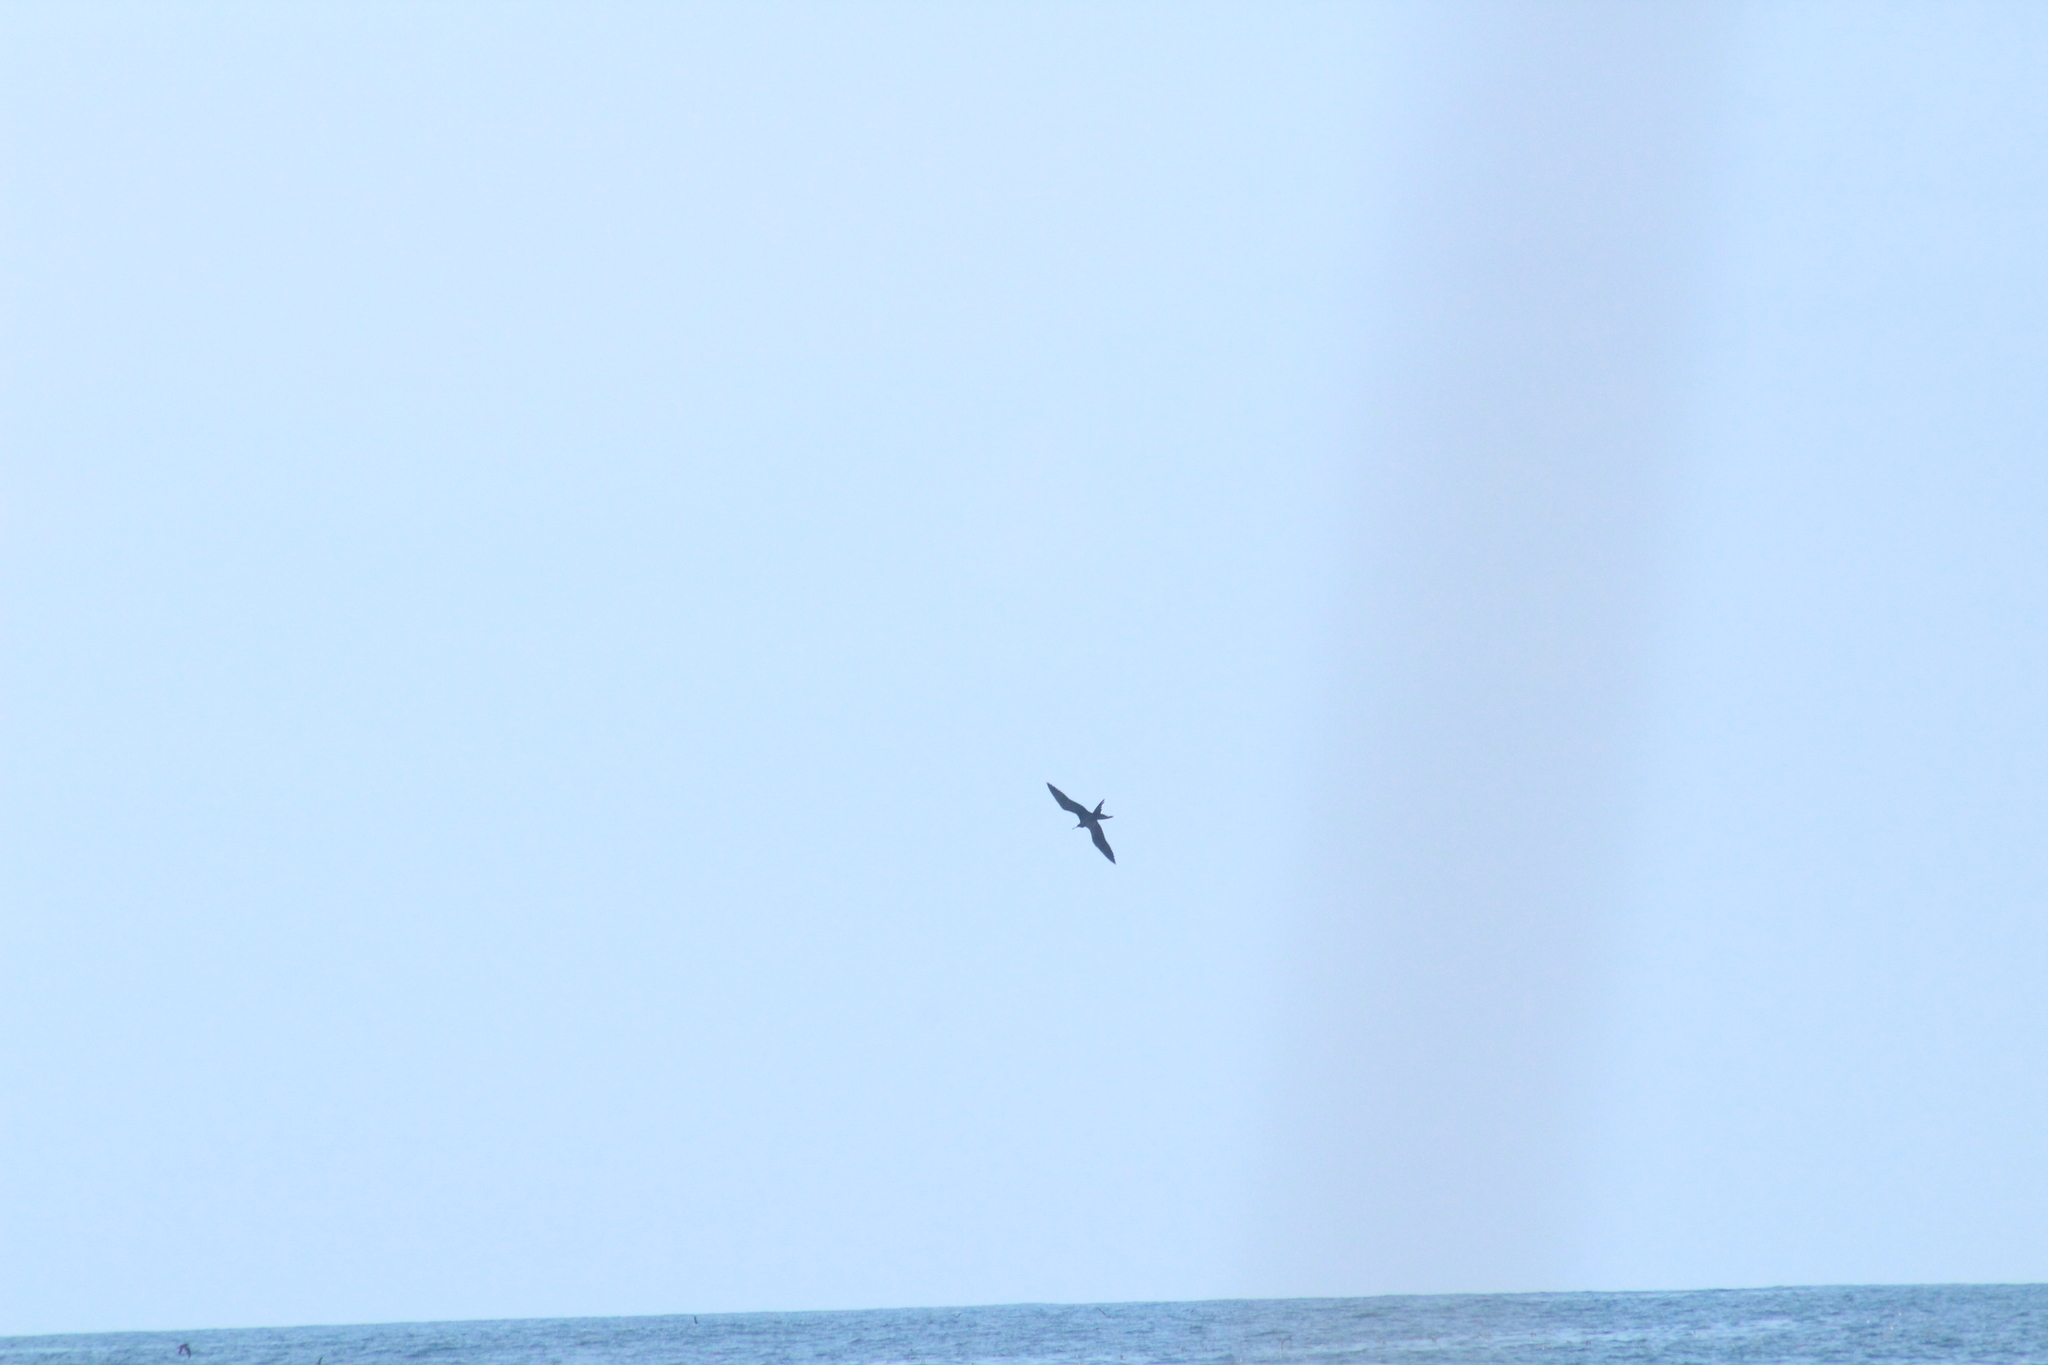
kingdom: Animalia
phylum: Chordata
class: Aves
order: Suliformes
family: Fregatidae
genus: Fregata
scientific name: Fregata magnificens
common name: Magnificent frigatebird
